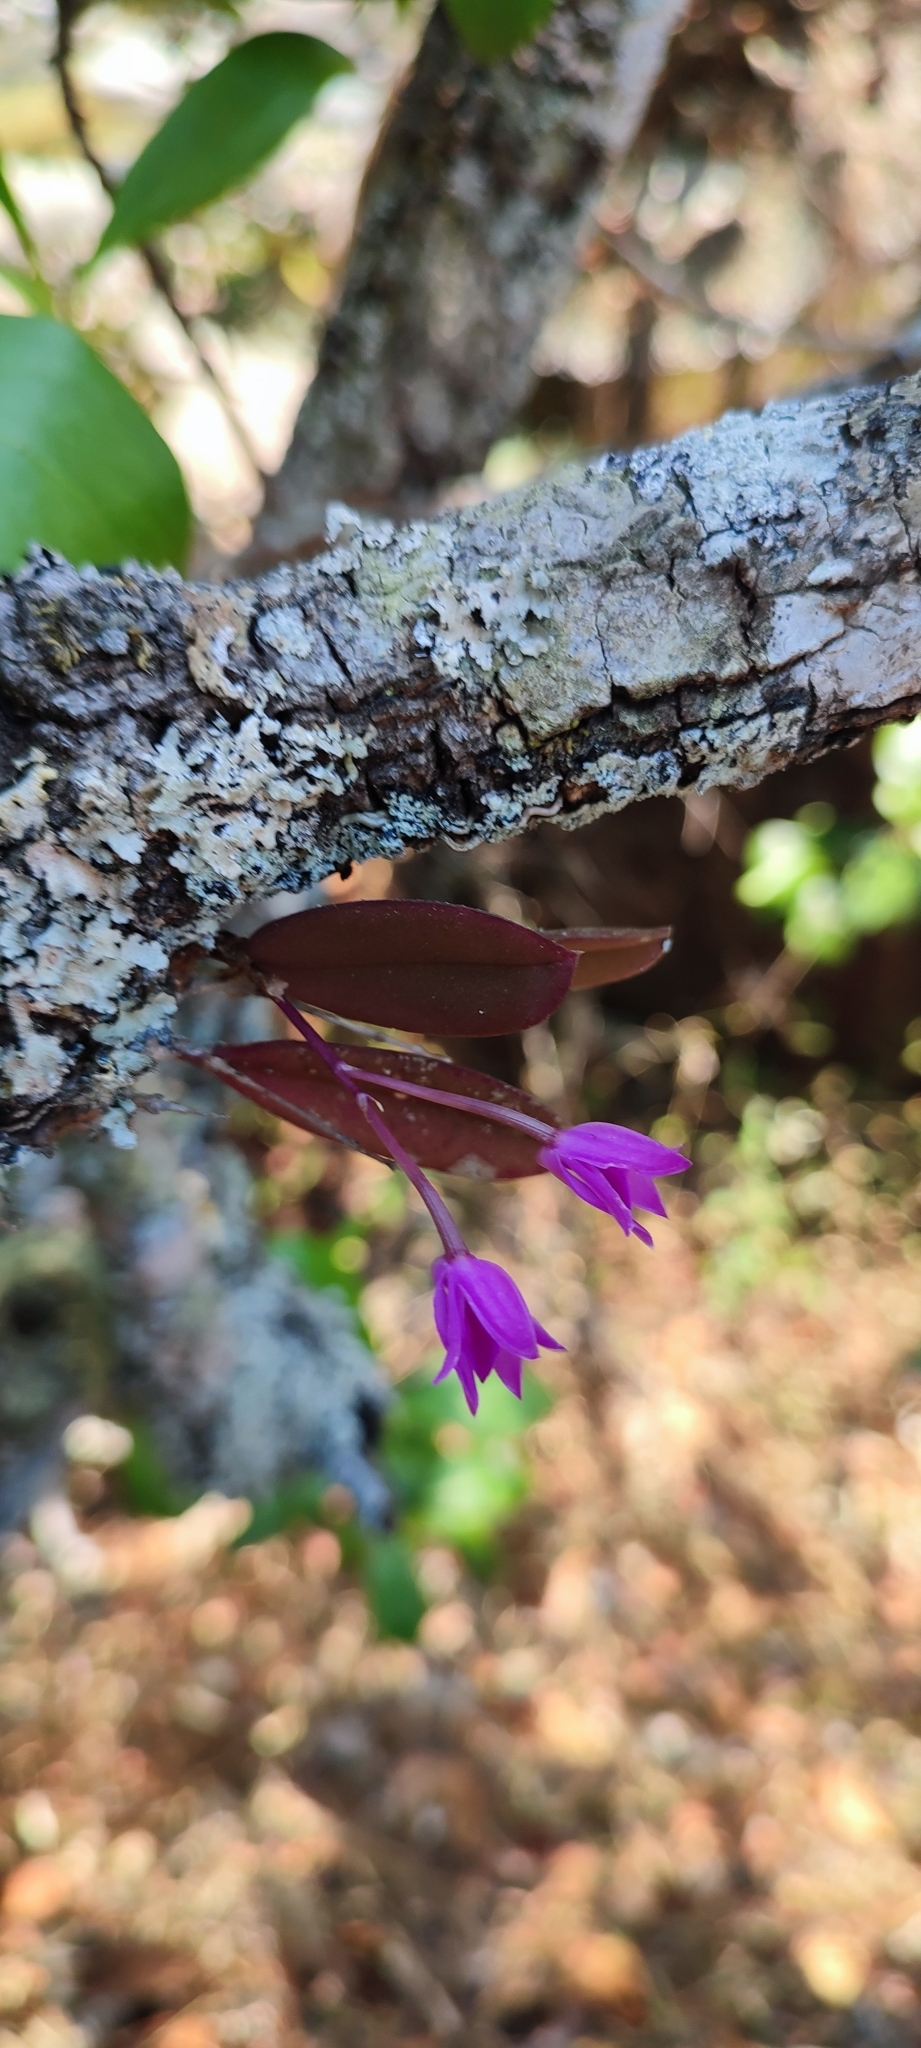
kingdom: Plantae
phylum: Tracheophyta
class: Liliopsida
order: Asparagales
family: Orchidaceae
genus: Meiracyllium
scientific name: Meiracyllium gemma
